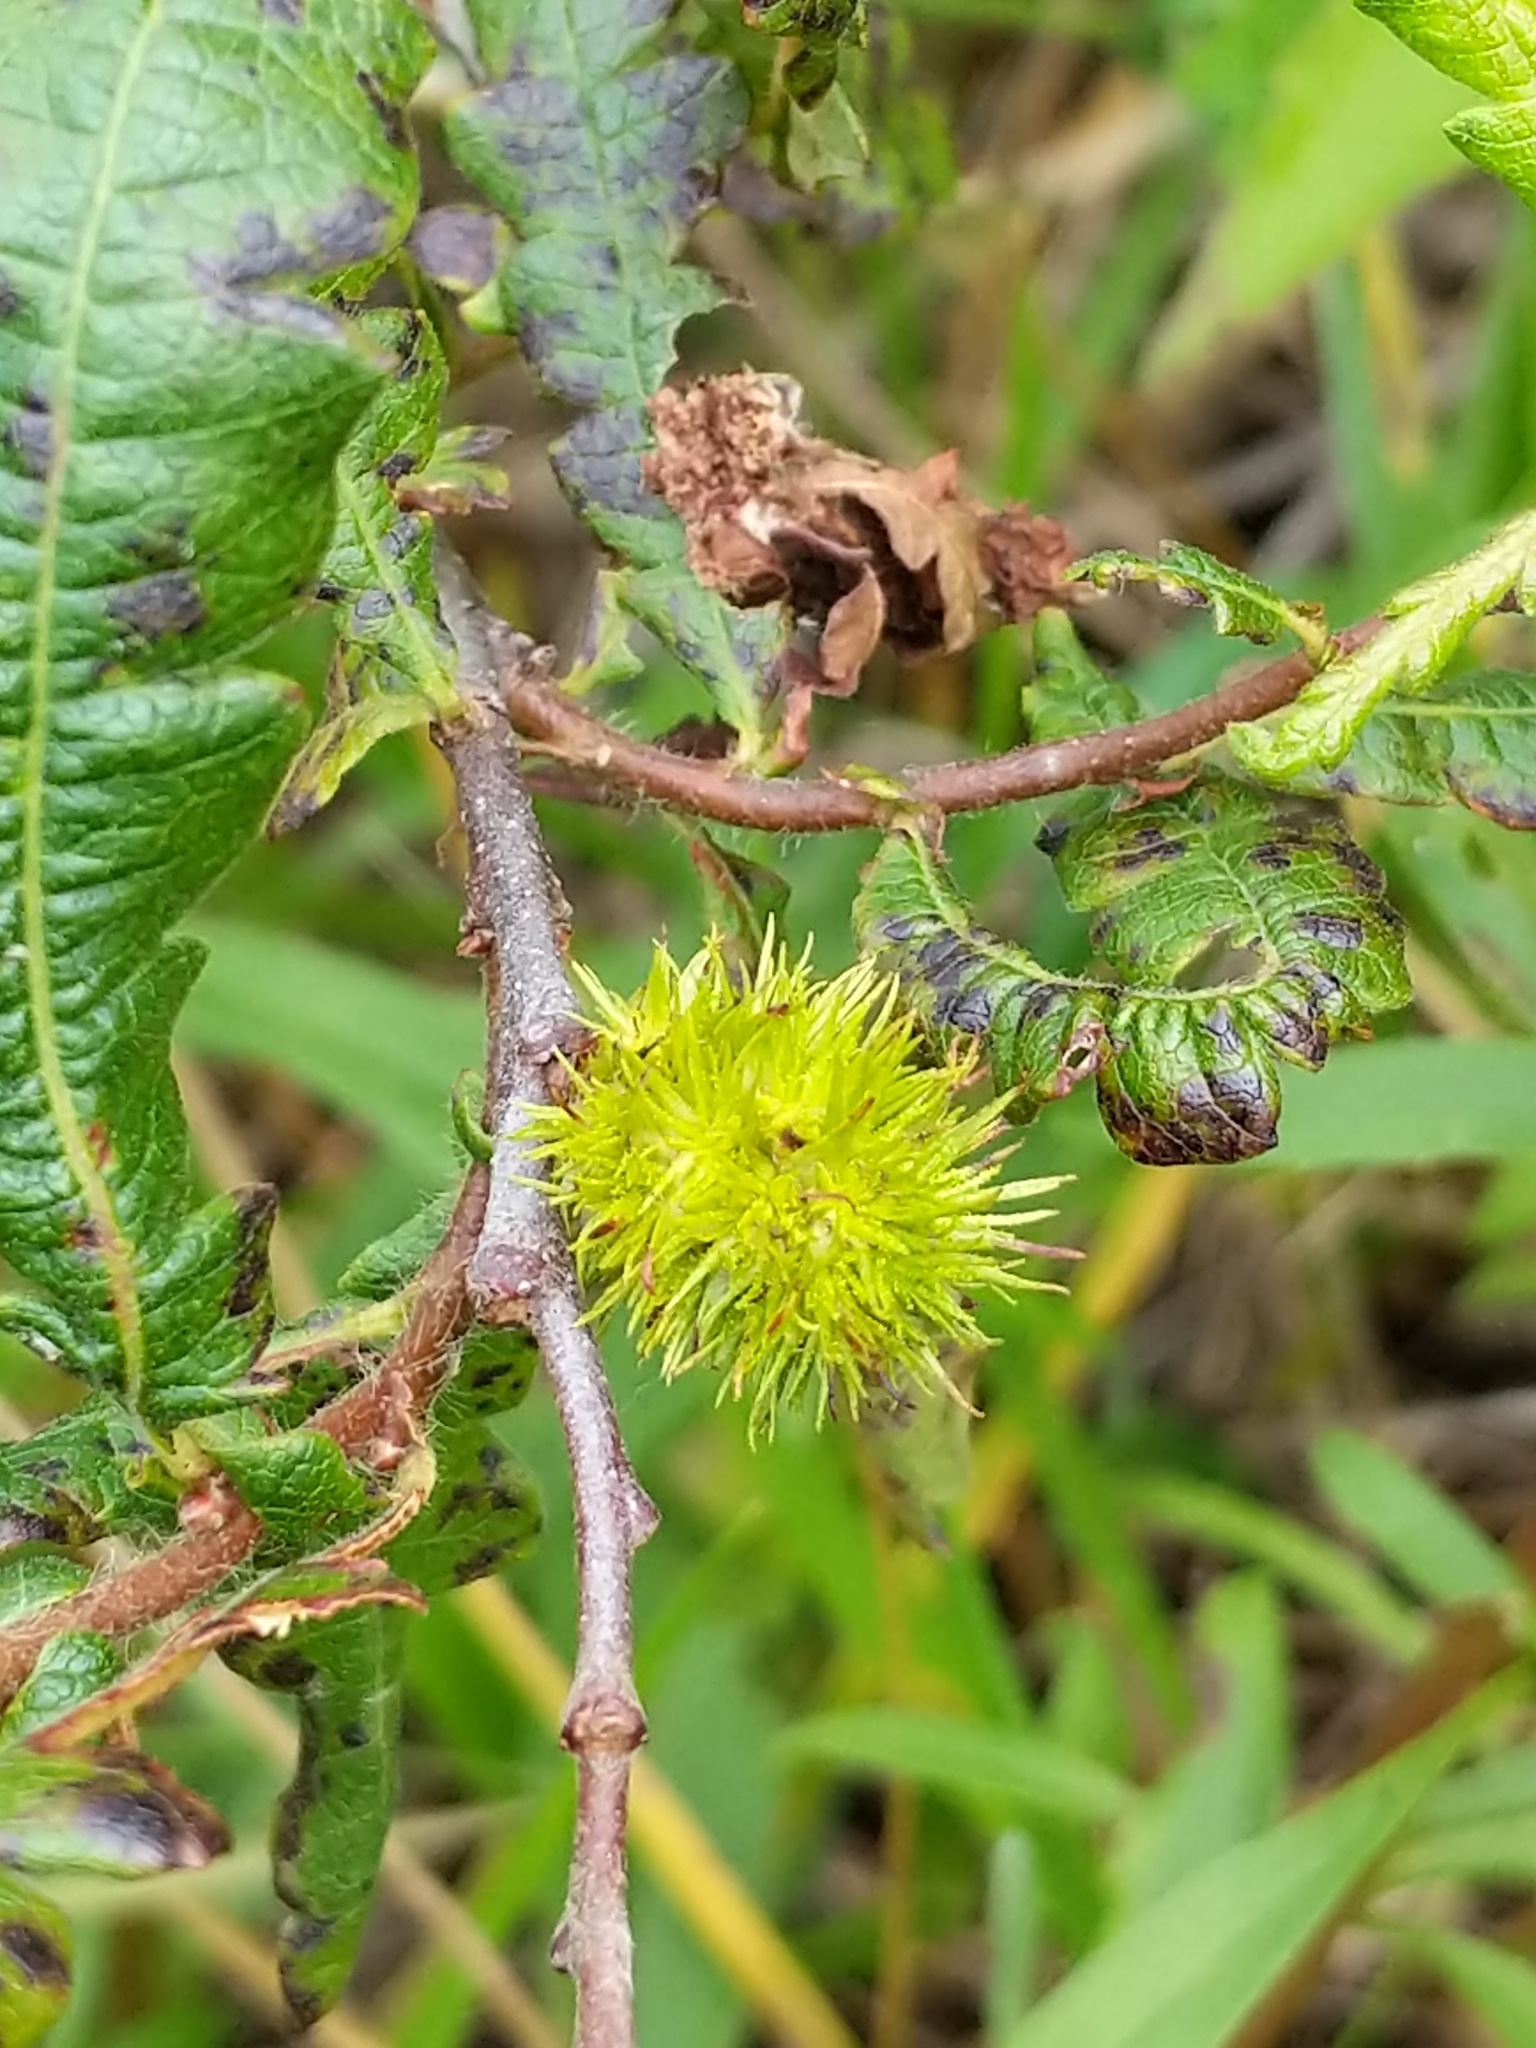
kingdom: Plantae
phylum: Tracheophyta
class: Magnoliopsida
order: Fagales
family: Myricaceae
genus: Comptonia
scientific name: Comptonia peregrina
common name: Sweet-fern
